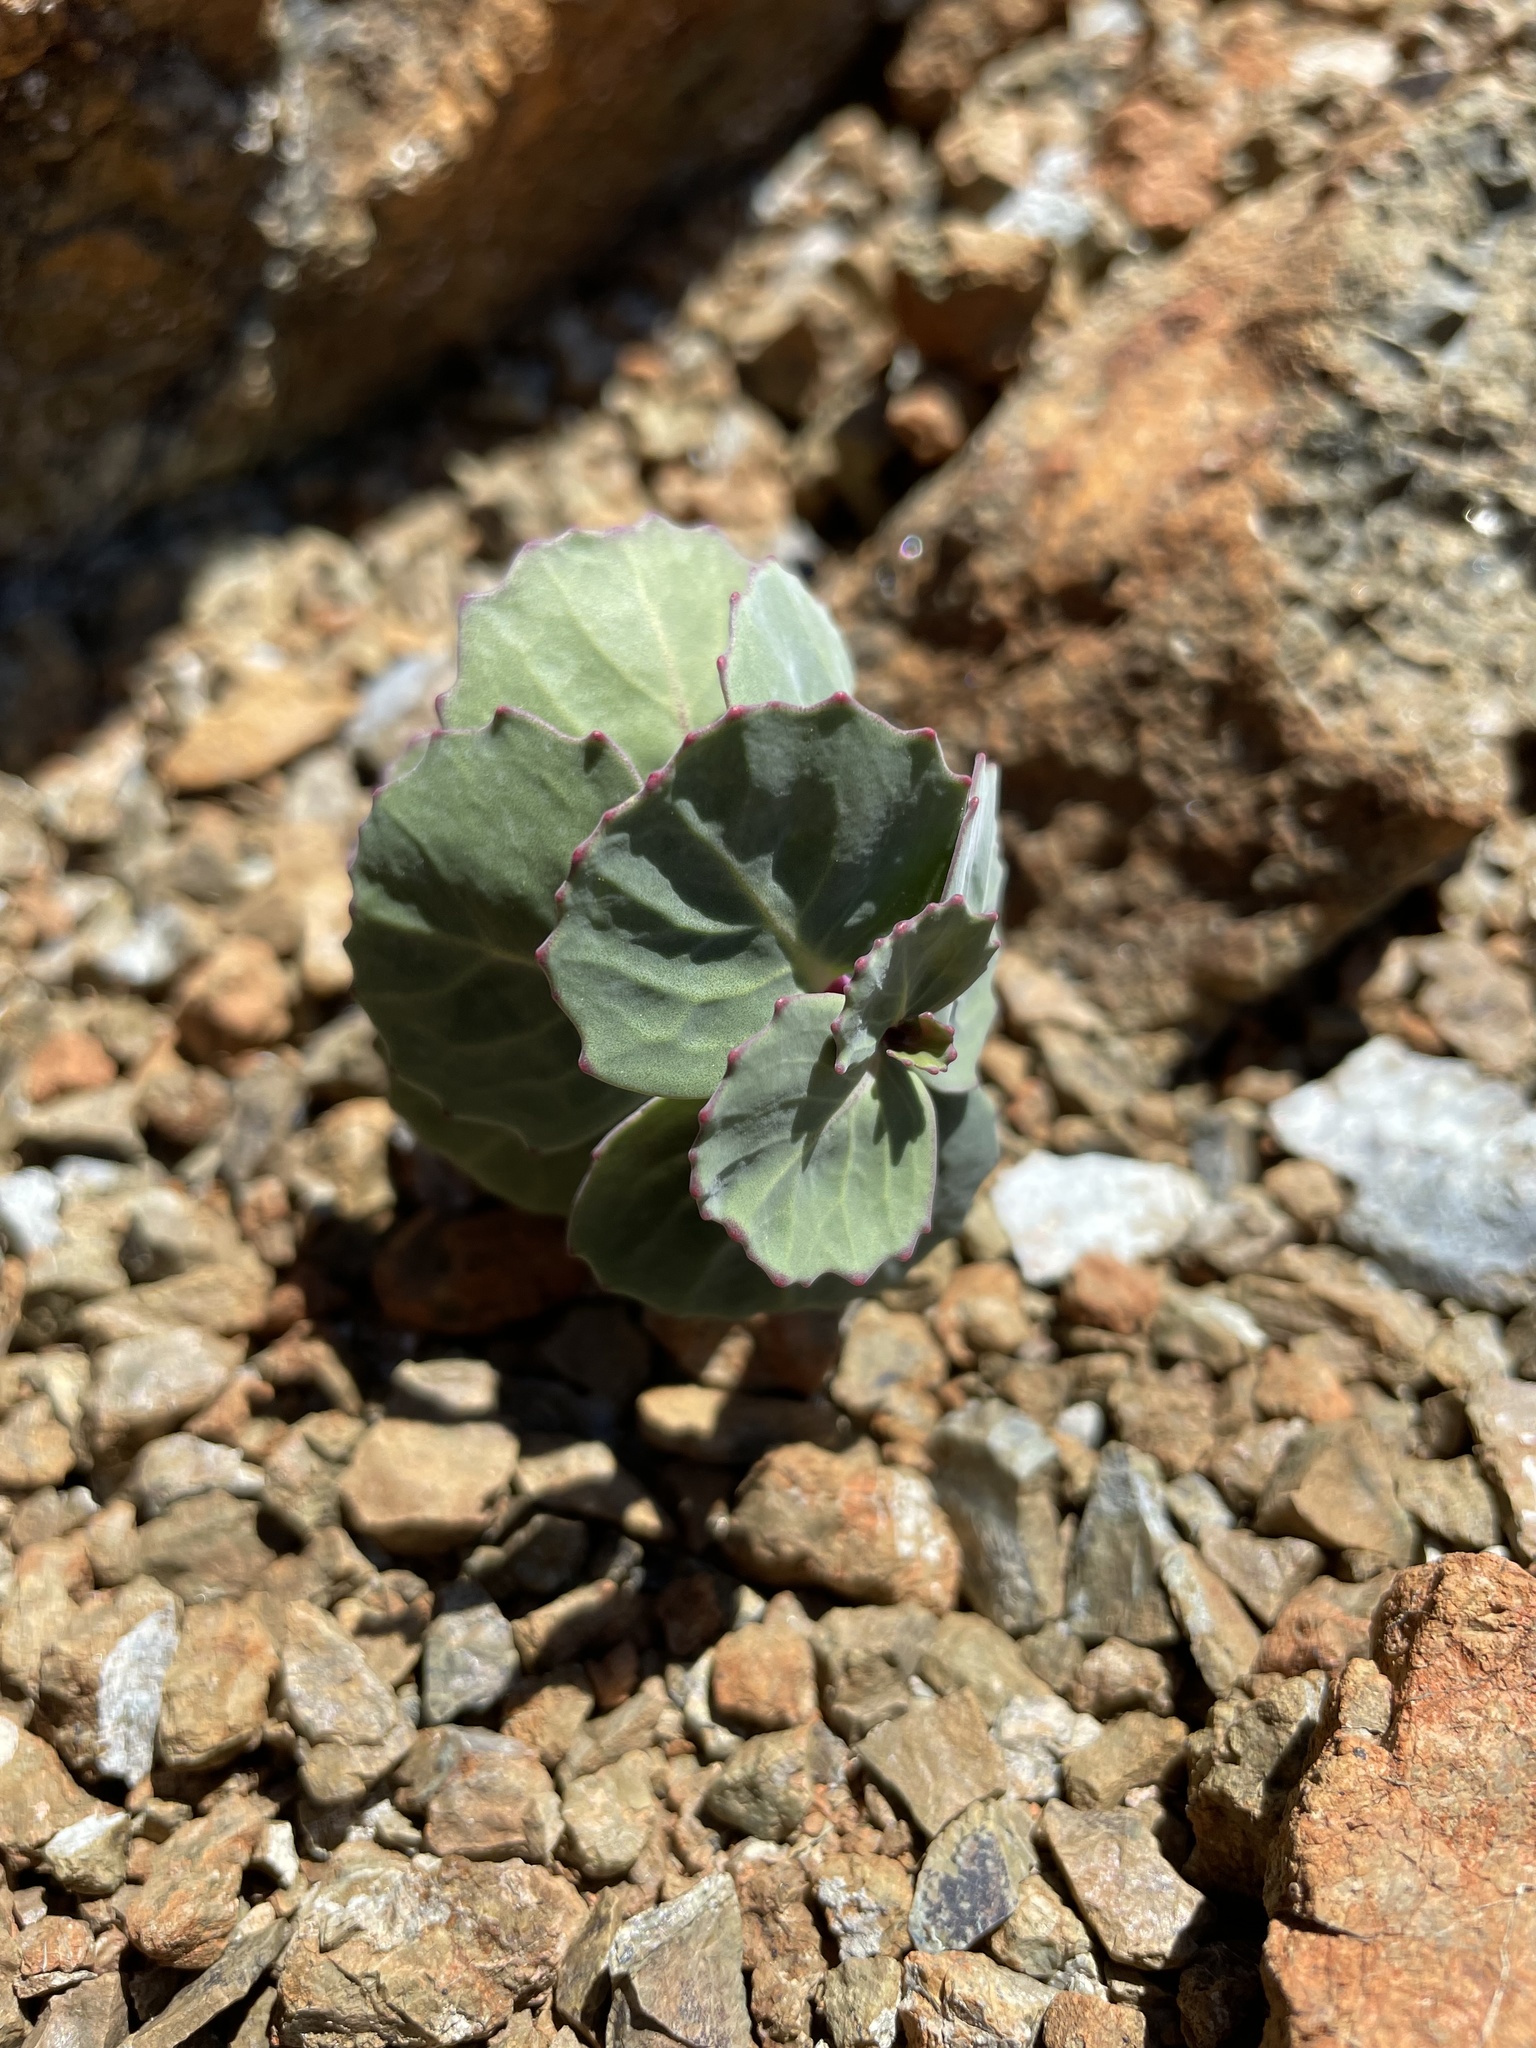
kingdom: Plantae
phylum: Tracheophyta
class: Magnoliopsida
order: Brassicales
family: Brassicaceae
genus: Streptanthus
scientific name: Streptanthus morrisonii
